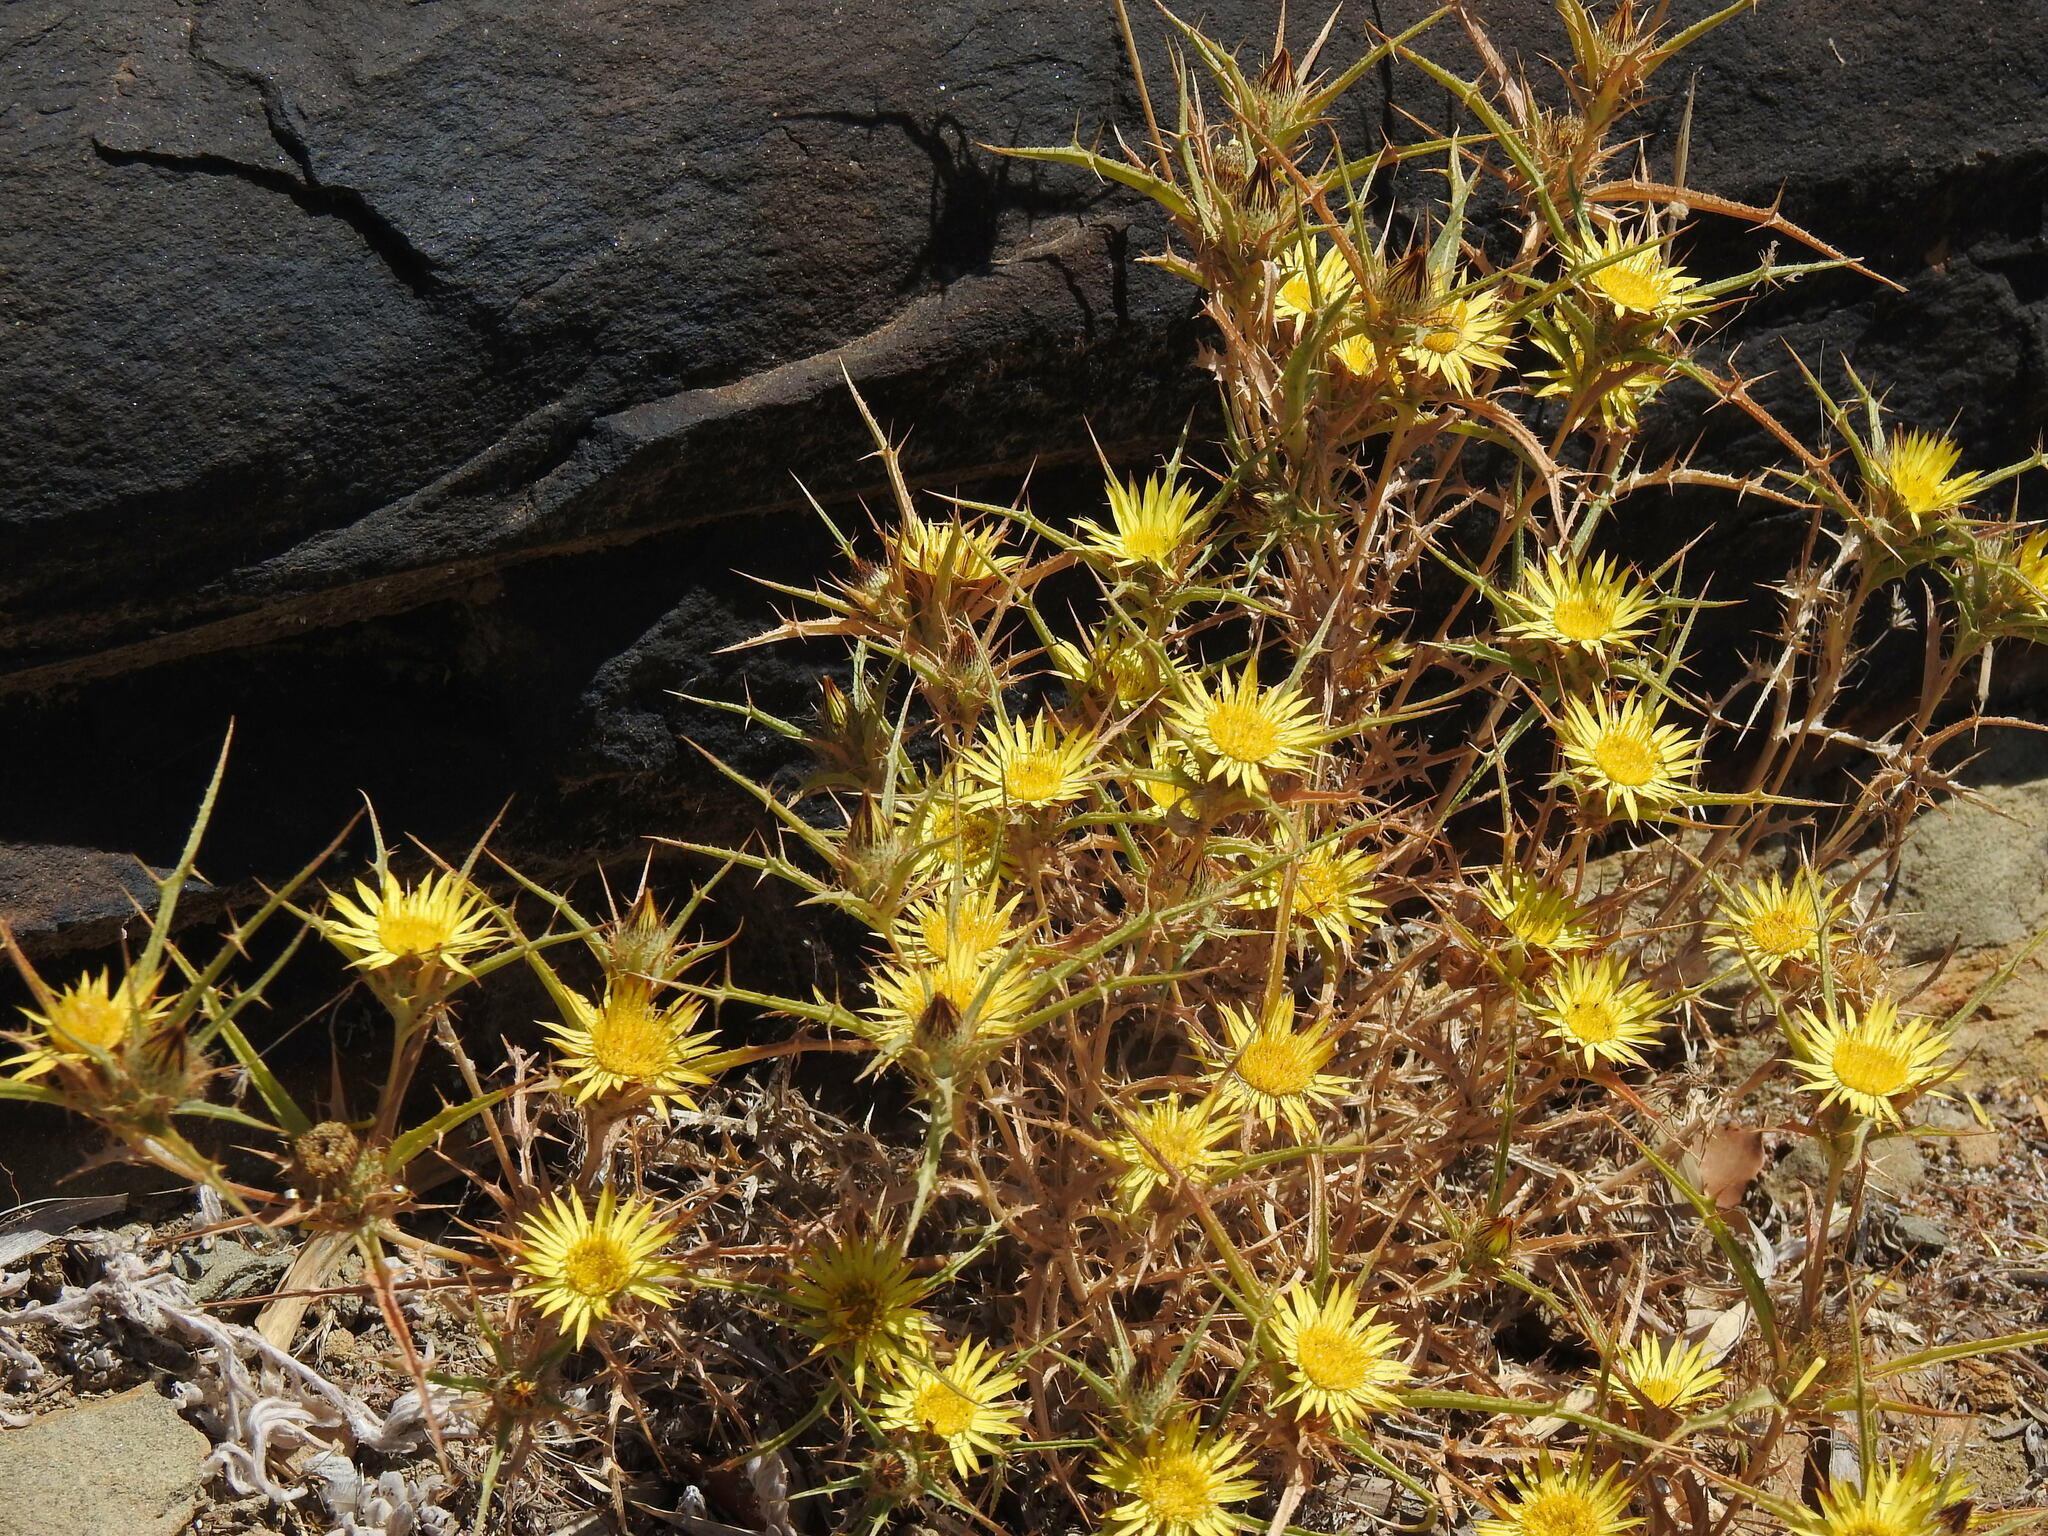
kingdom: Plantae
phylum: Tracheophyta
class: Magnoliopsida
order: Asterales
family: Asteraceae
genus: Carlina
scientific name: Carlina racemosa
